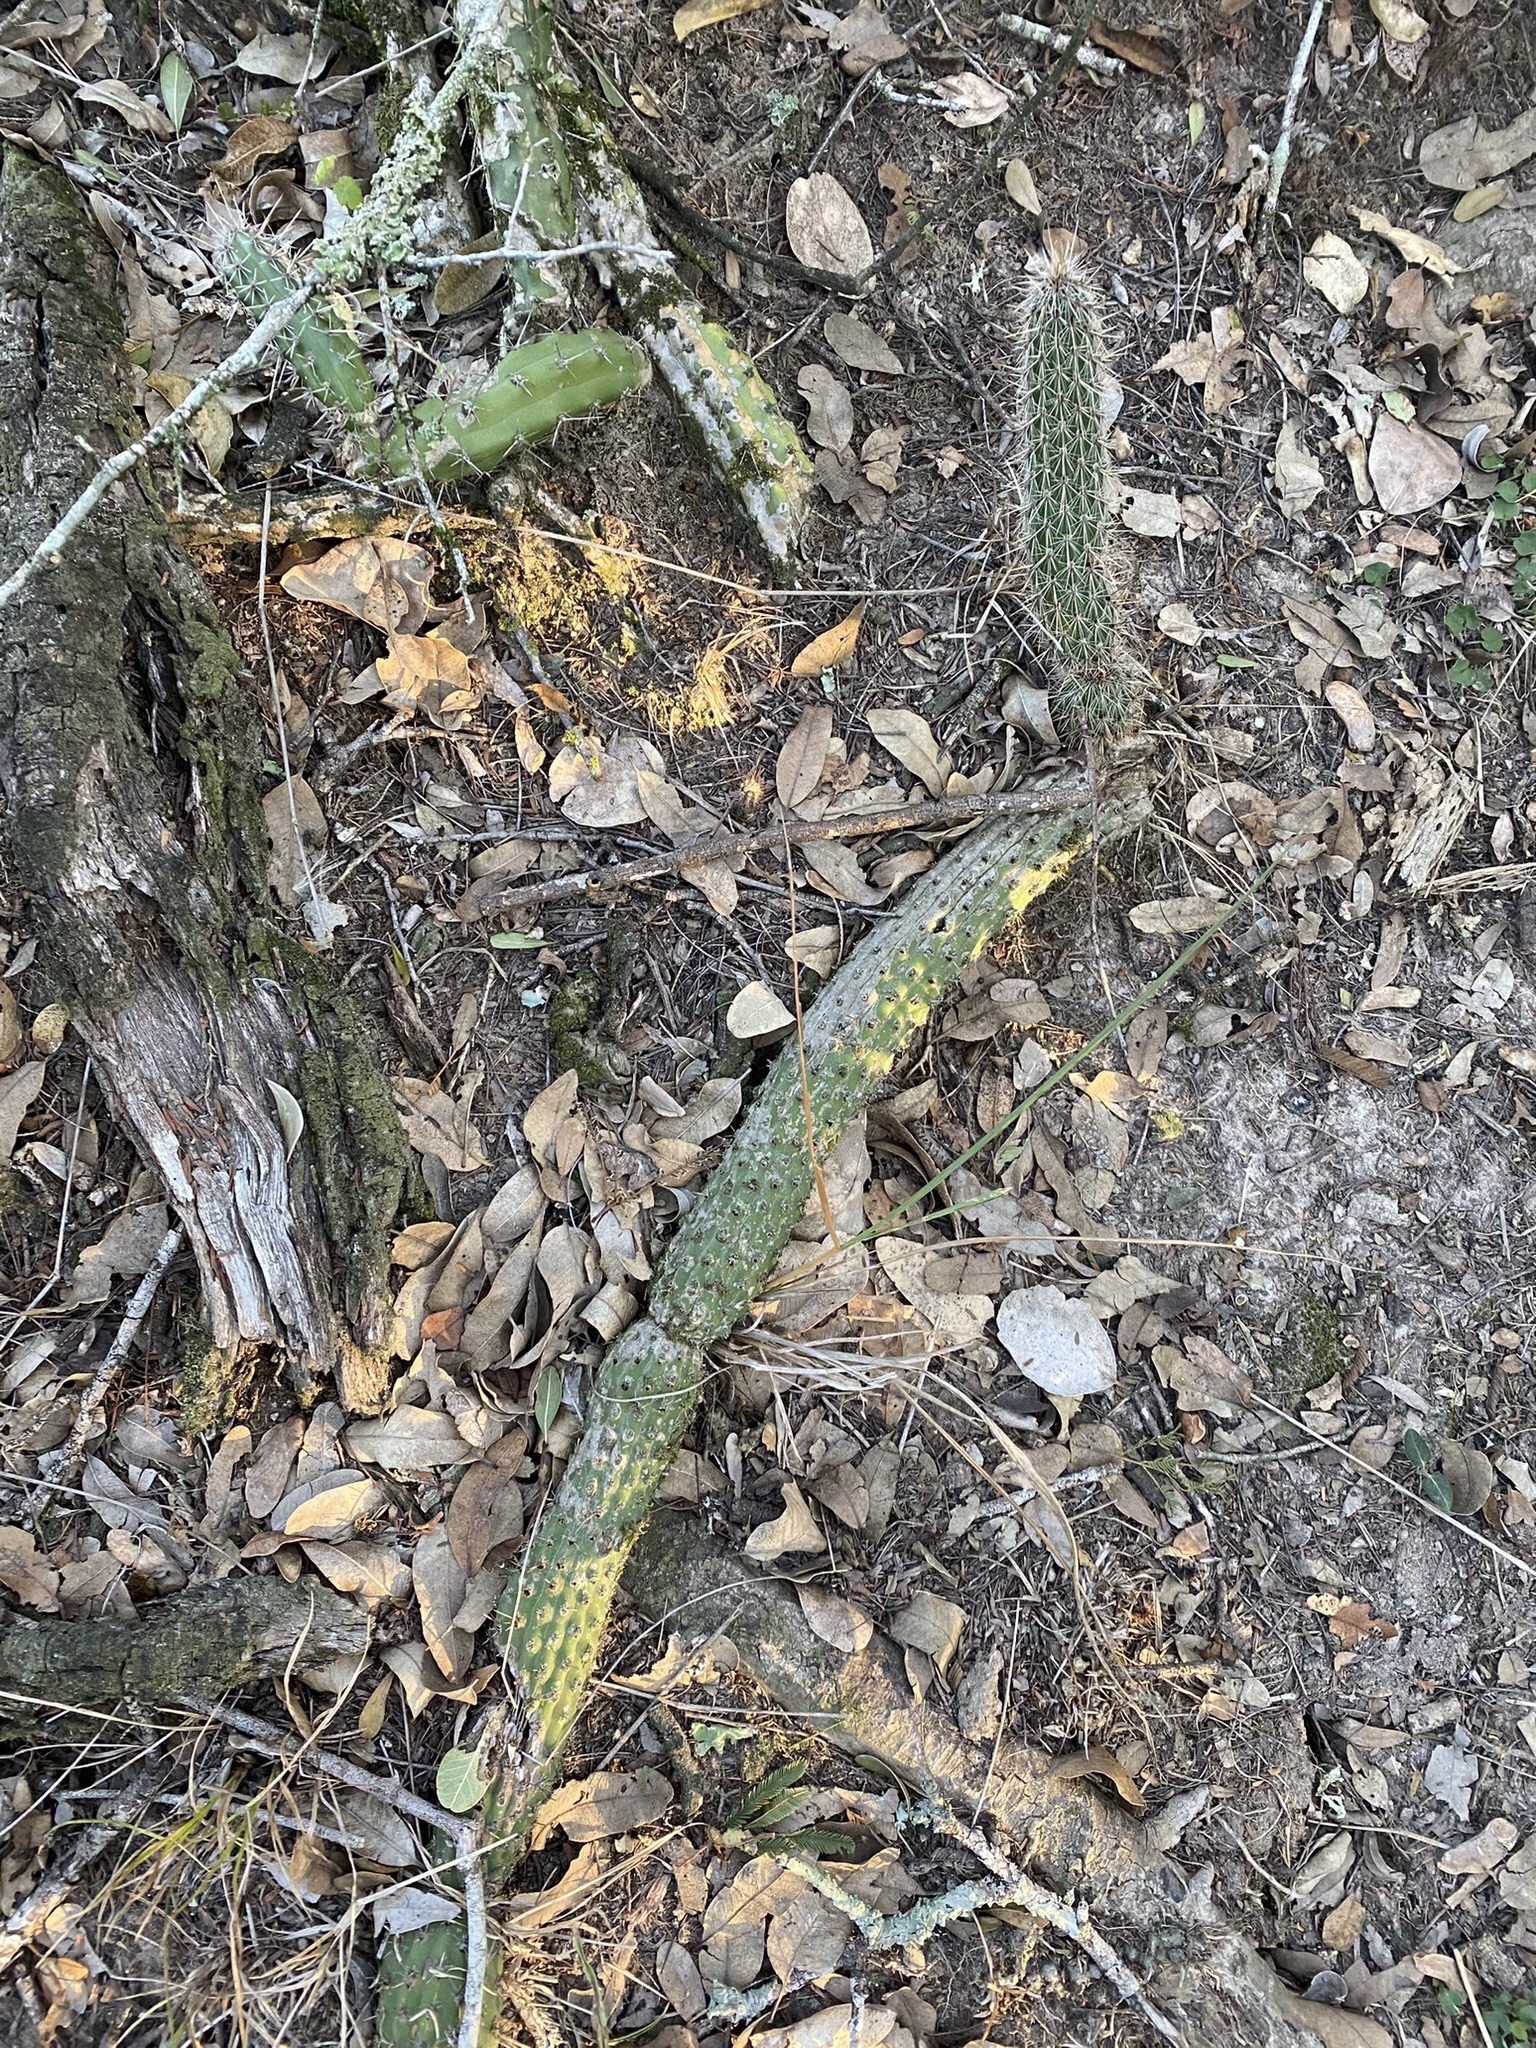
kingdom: Plantae
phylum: Tracheophyta
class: Magnoliopsida
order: Caryophyllales
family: Cactaceae
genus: Cleistocactus
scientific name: Cleistocactus baumannii
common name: Scarlet-bugler
